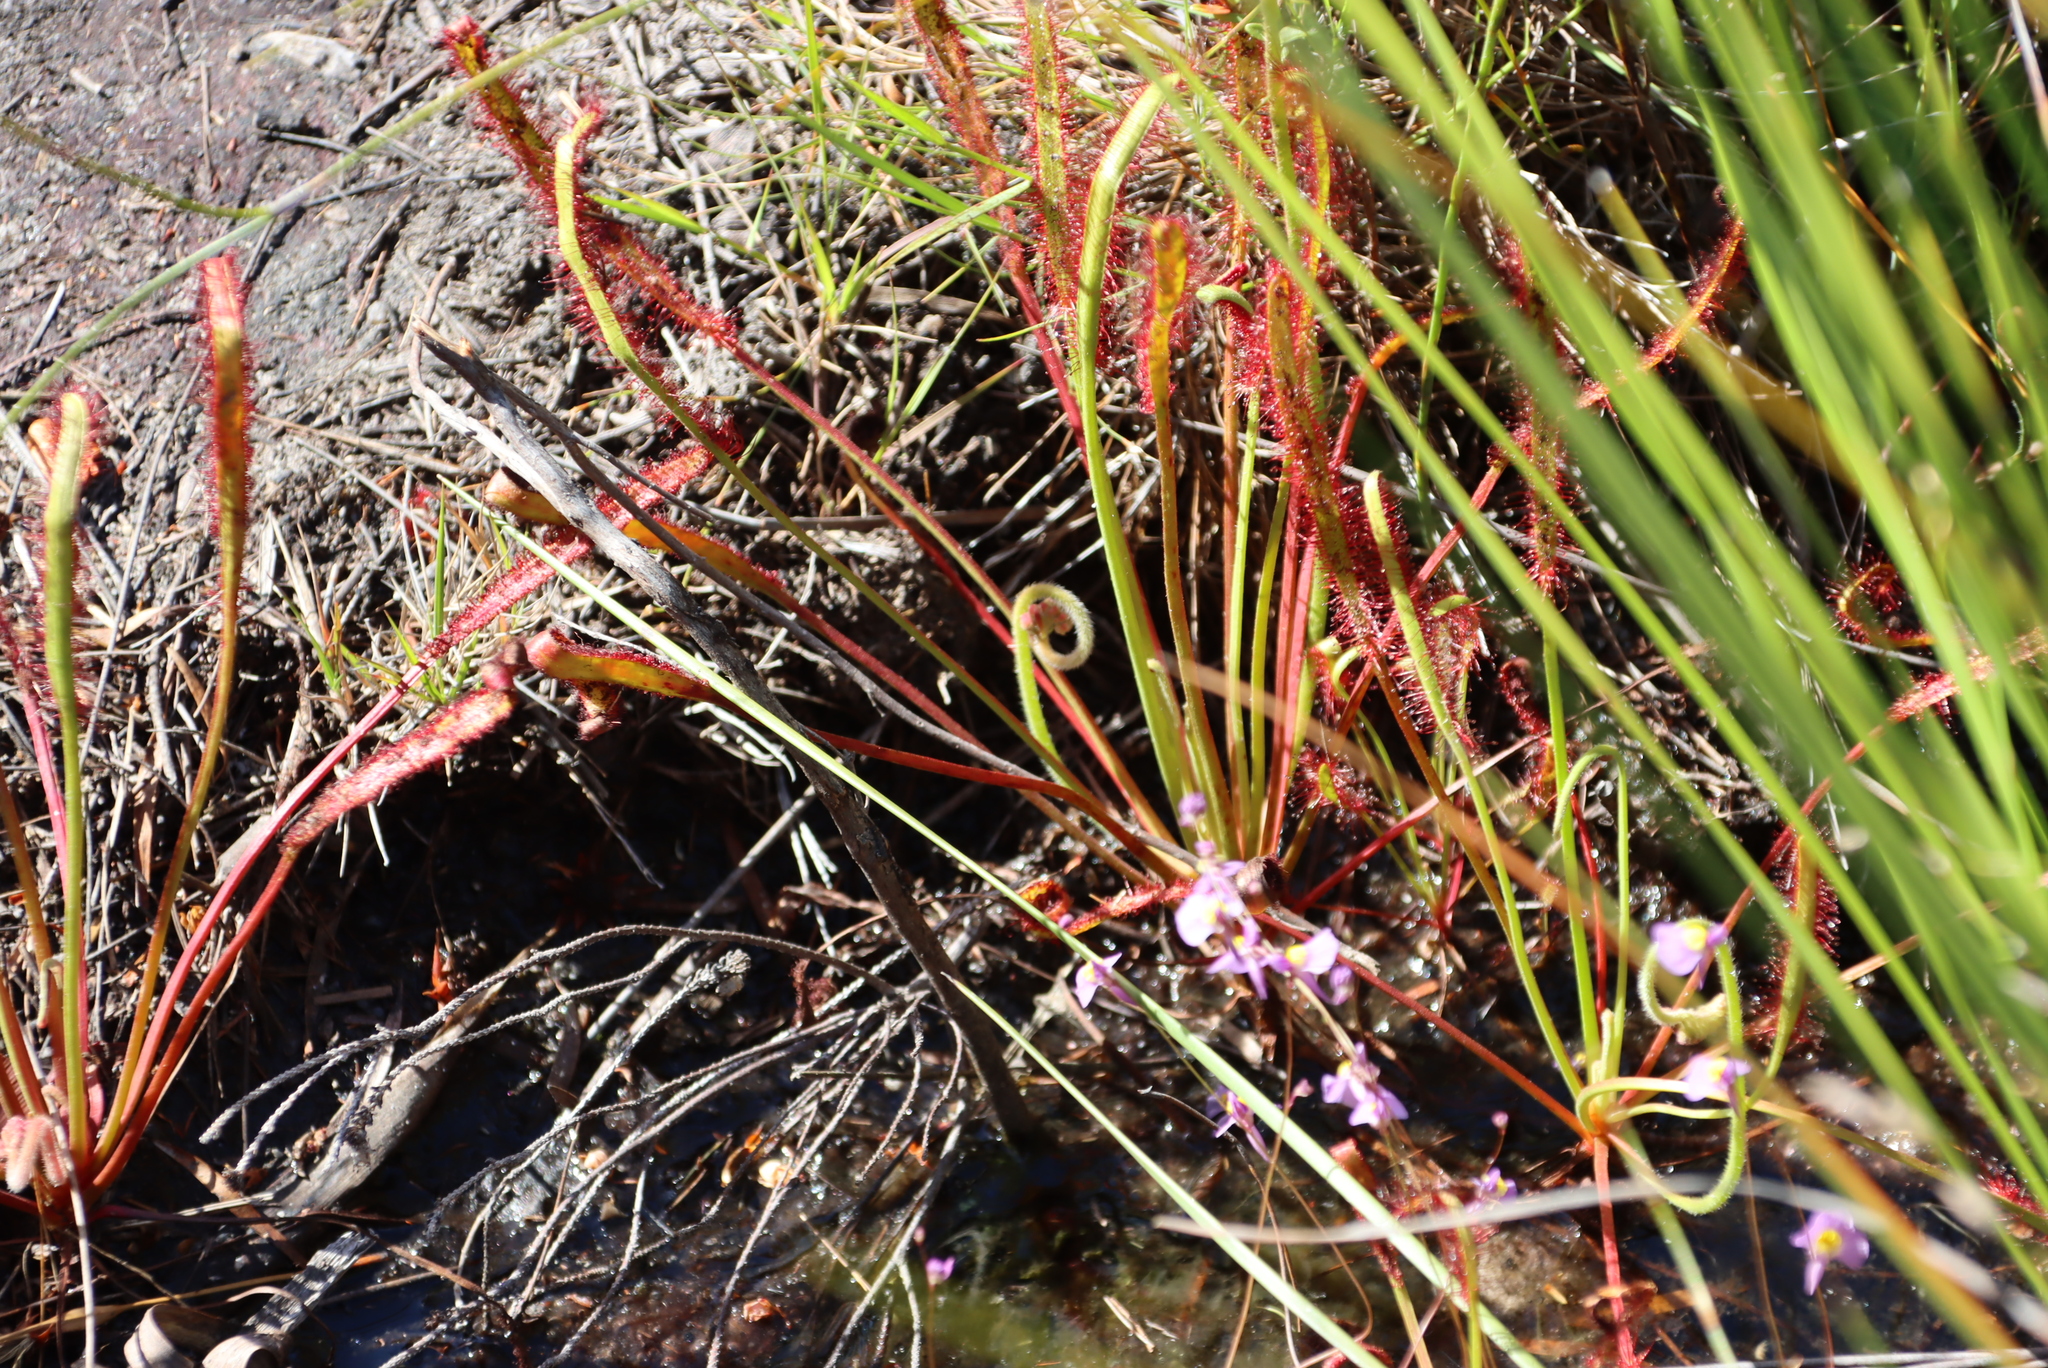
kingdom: Plantae
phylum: Tracheophyta
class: Magnoliopsida
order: Caryophyllales
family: Droseraceae
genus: Drosera
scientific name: Drosera capensis
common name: Cape sundew
